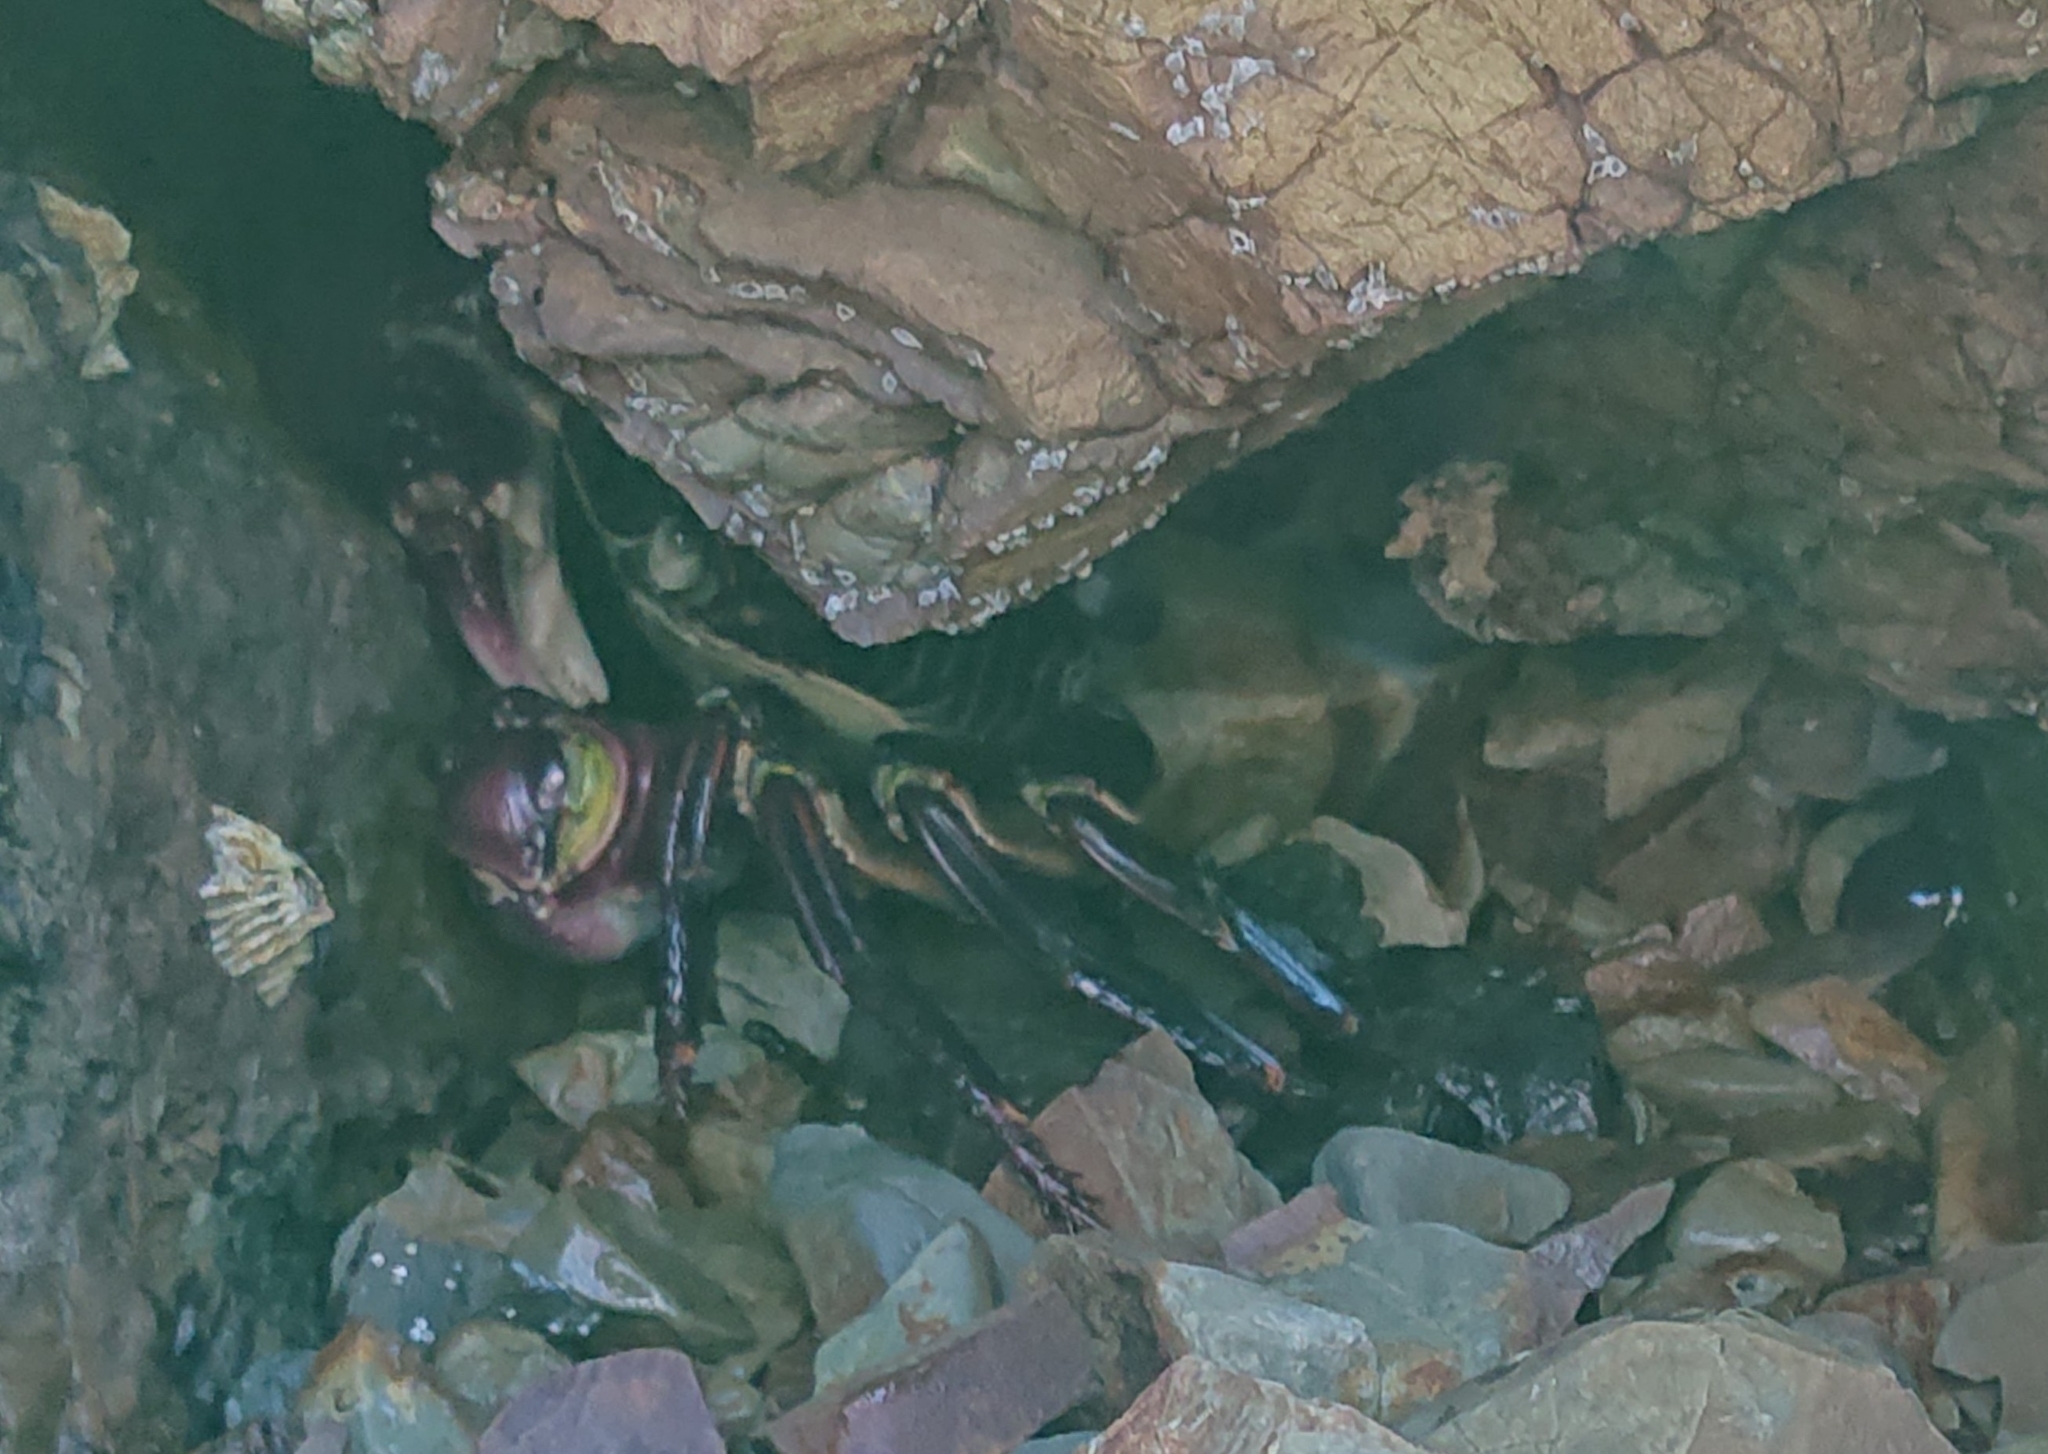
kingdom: Animalia
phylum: Arthropoda
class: Malacostraca
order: Decapoda
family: Grapsidae
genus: Leptograpsus
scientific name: Leptograpsus variegatus
